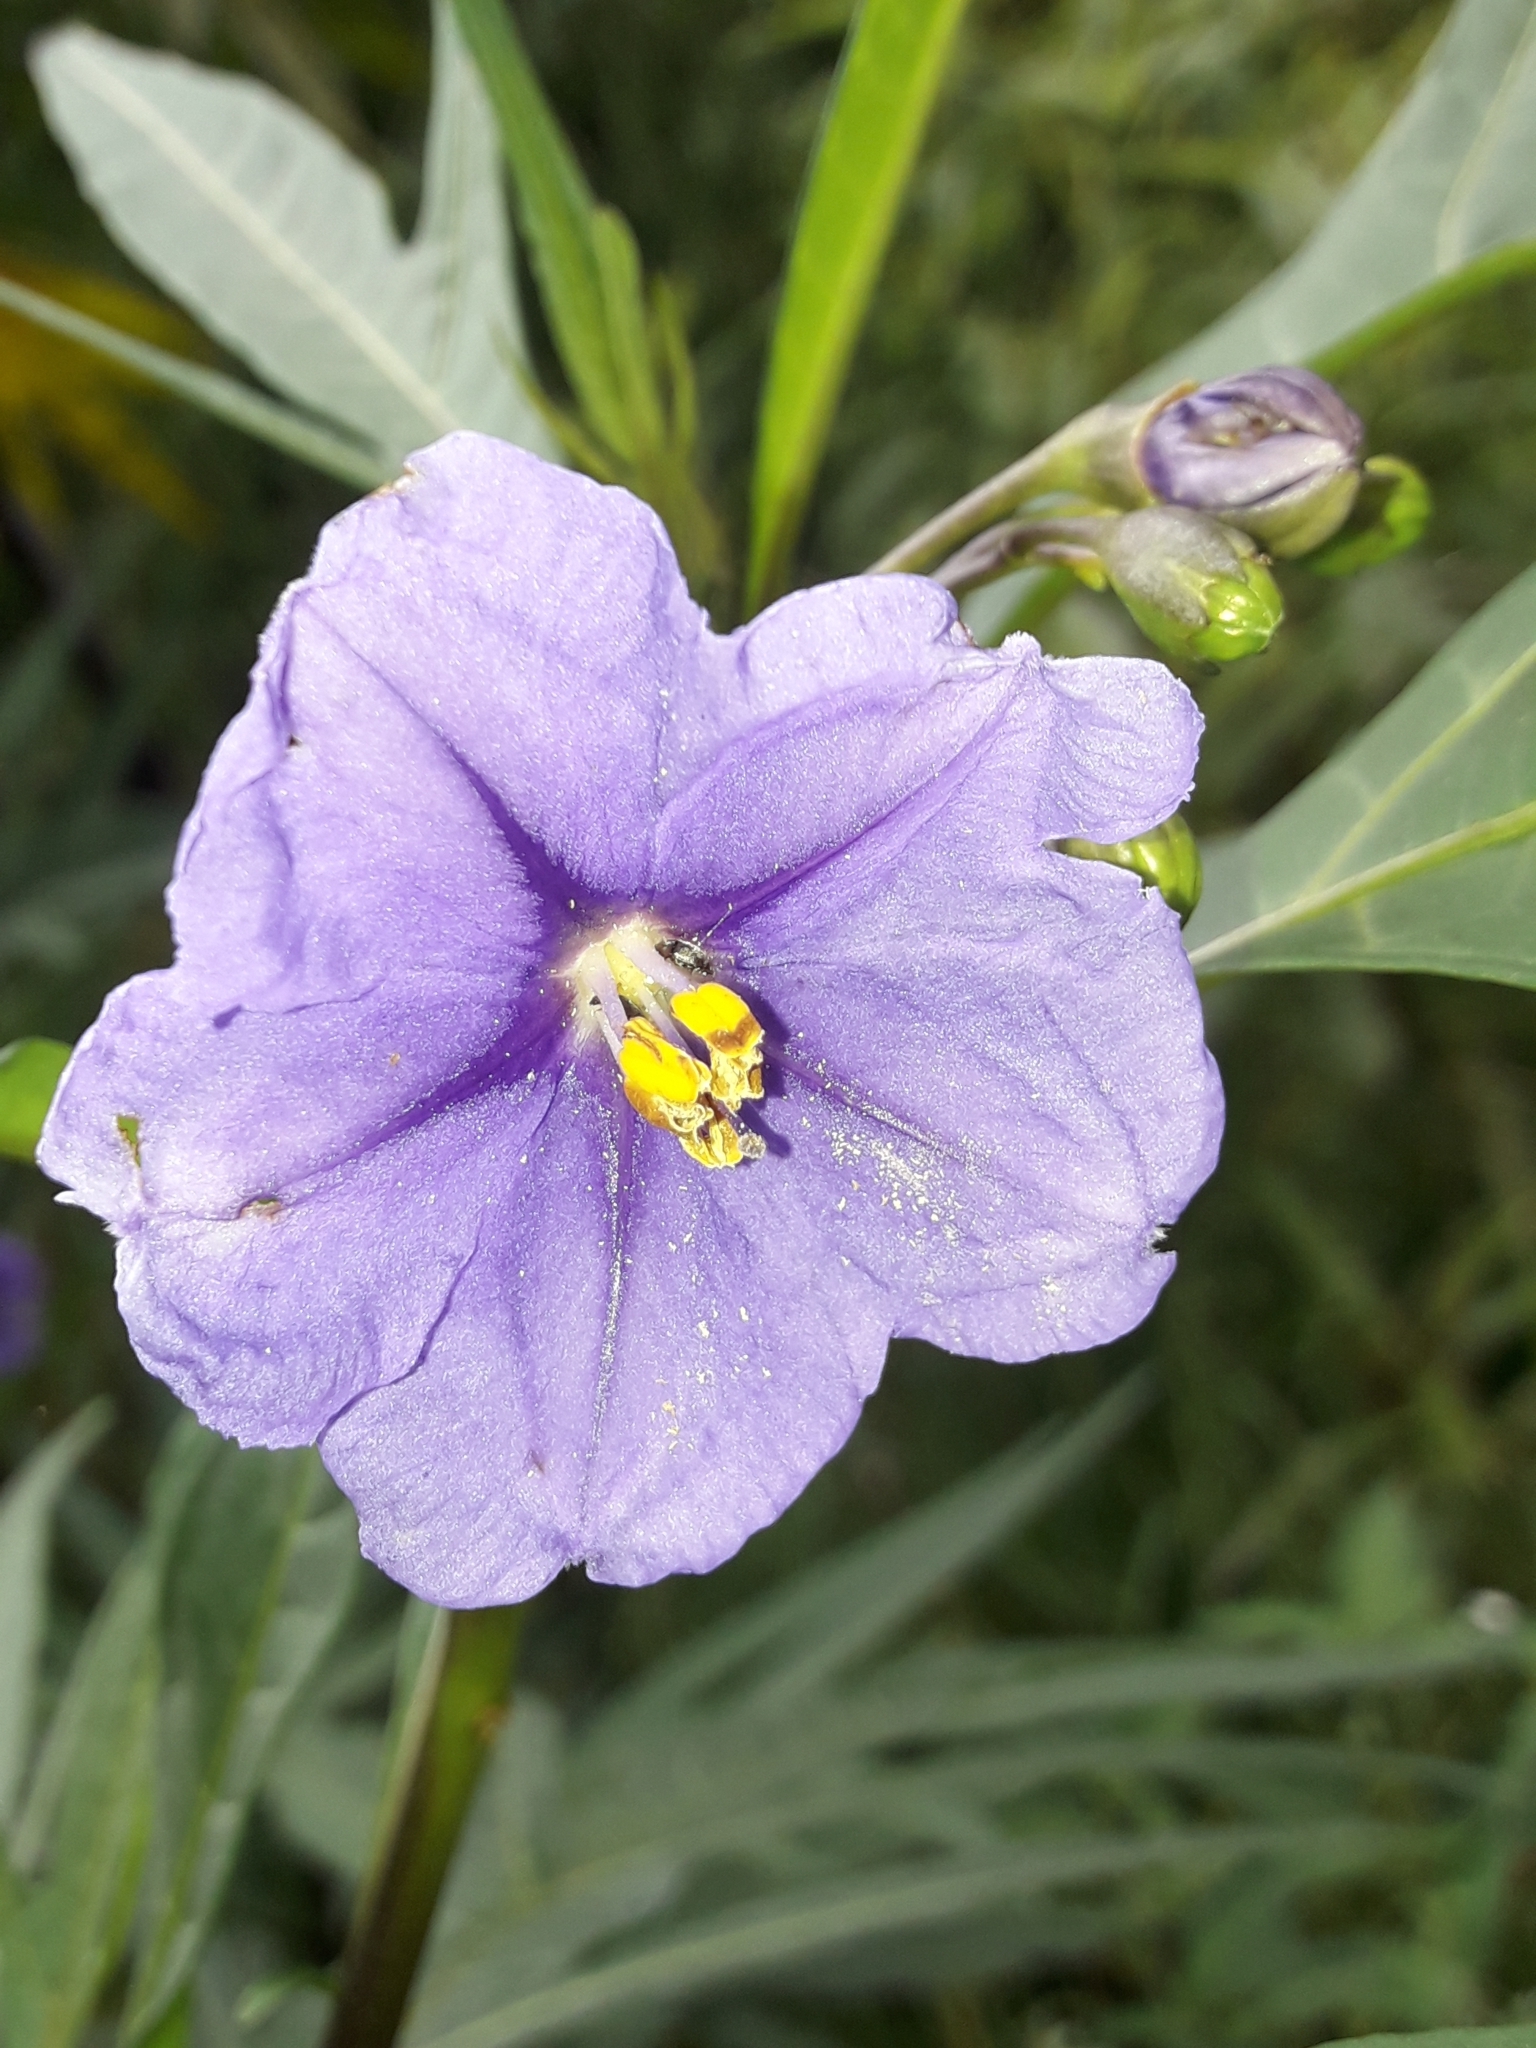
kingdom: Plantae
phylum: Tracheophyta
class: Magnoliopsida
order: Solanales
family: Solanaceae
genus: Solanum
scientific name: Solanum laciniatum
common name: Kangaroo-apple
